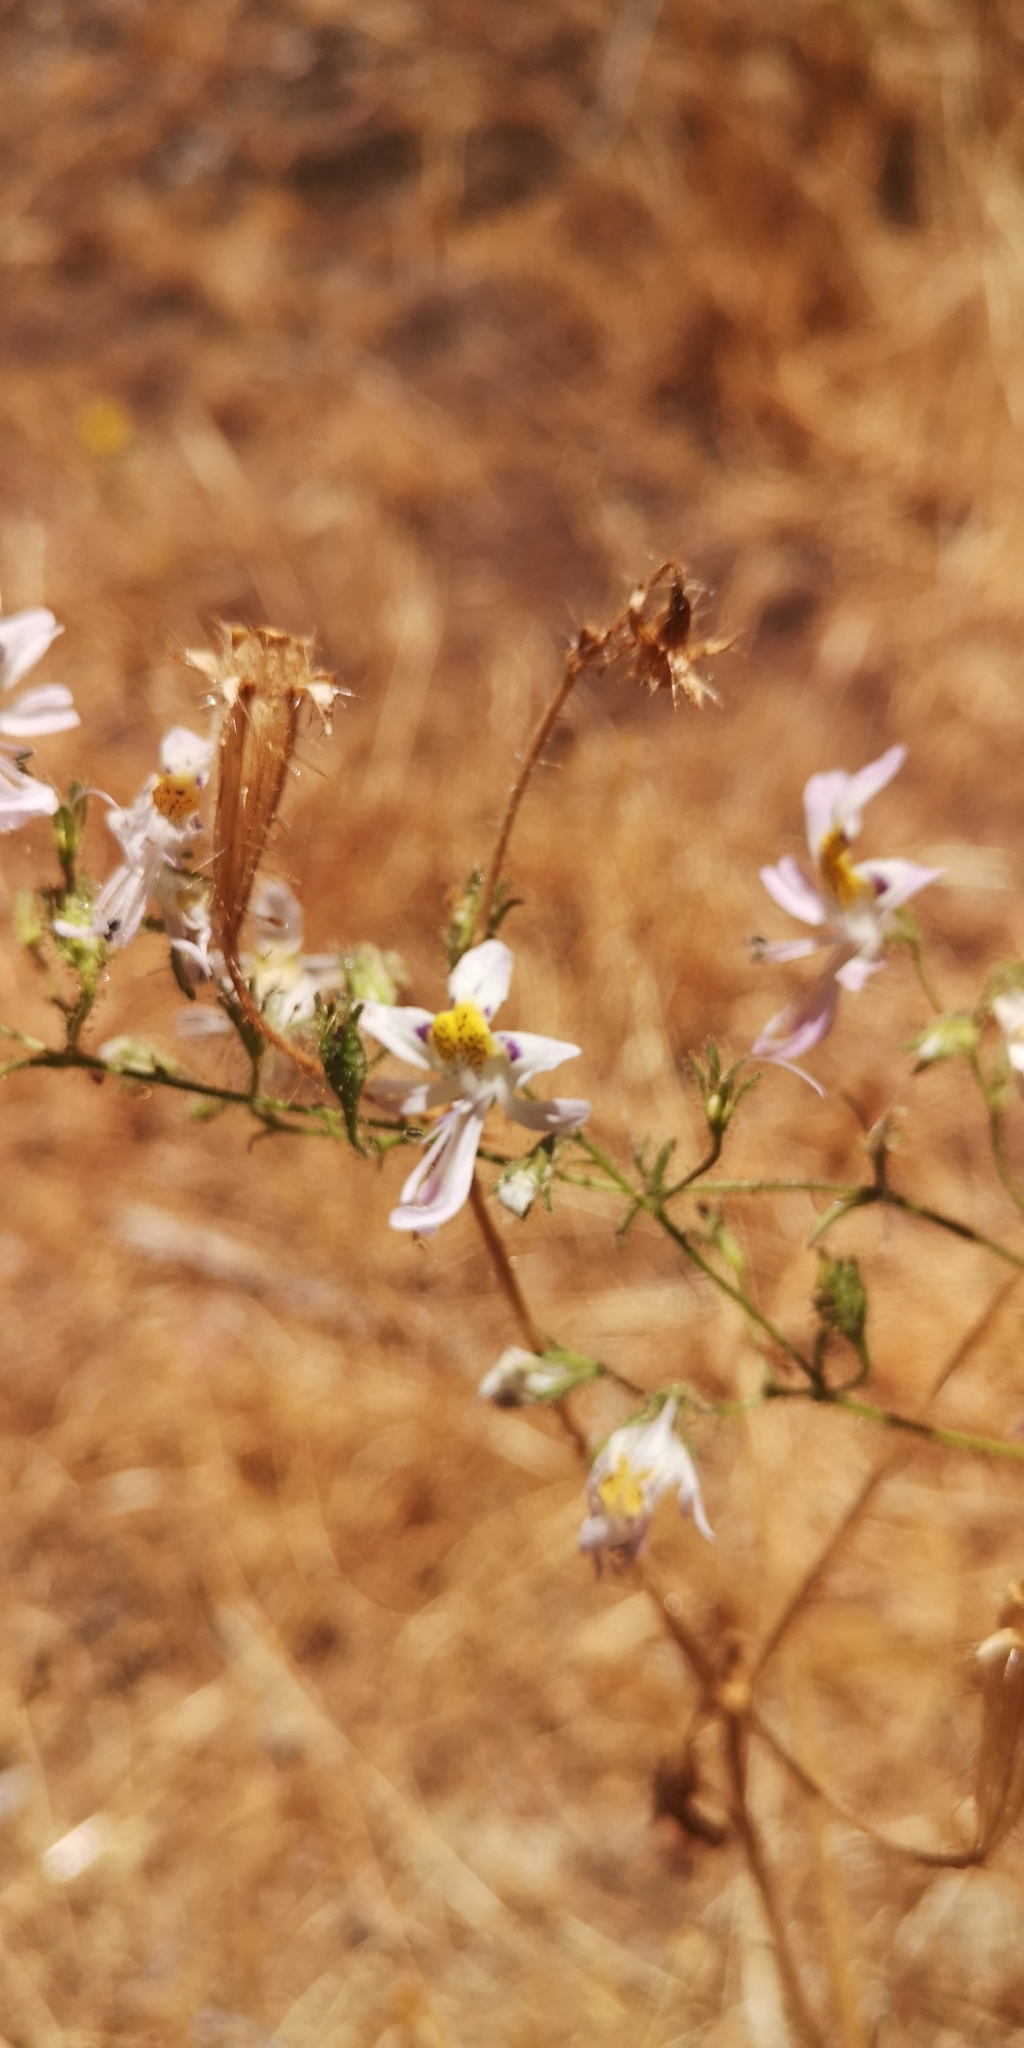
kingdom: Plantae
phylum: Tracheophyta
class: Magnoliopsida
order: Solanales
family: Solanaceae
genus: Schizanthus
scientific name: Schizanthus porrigens
